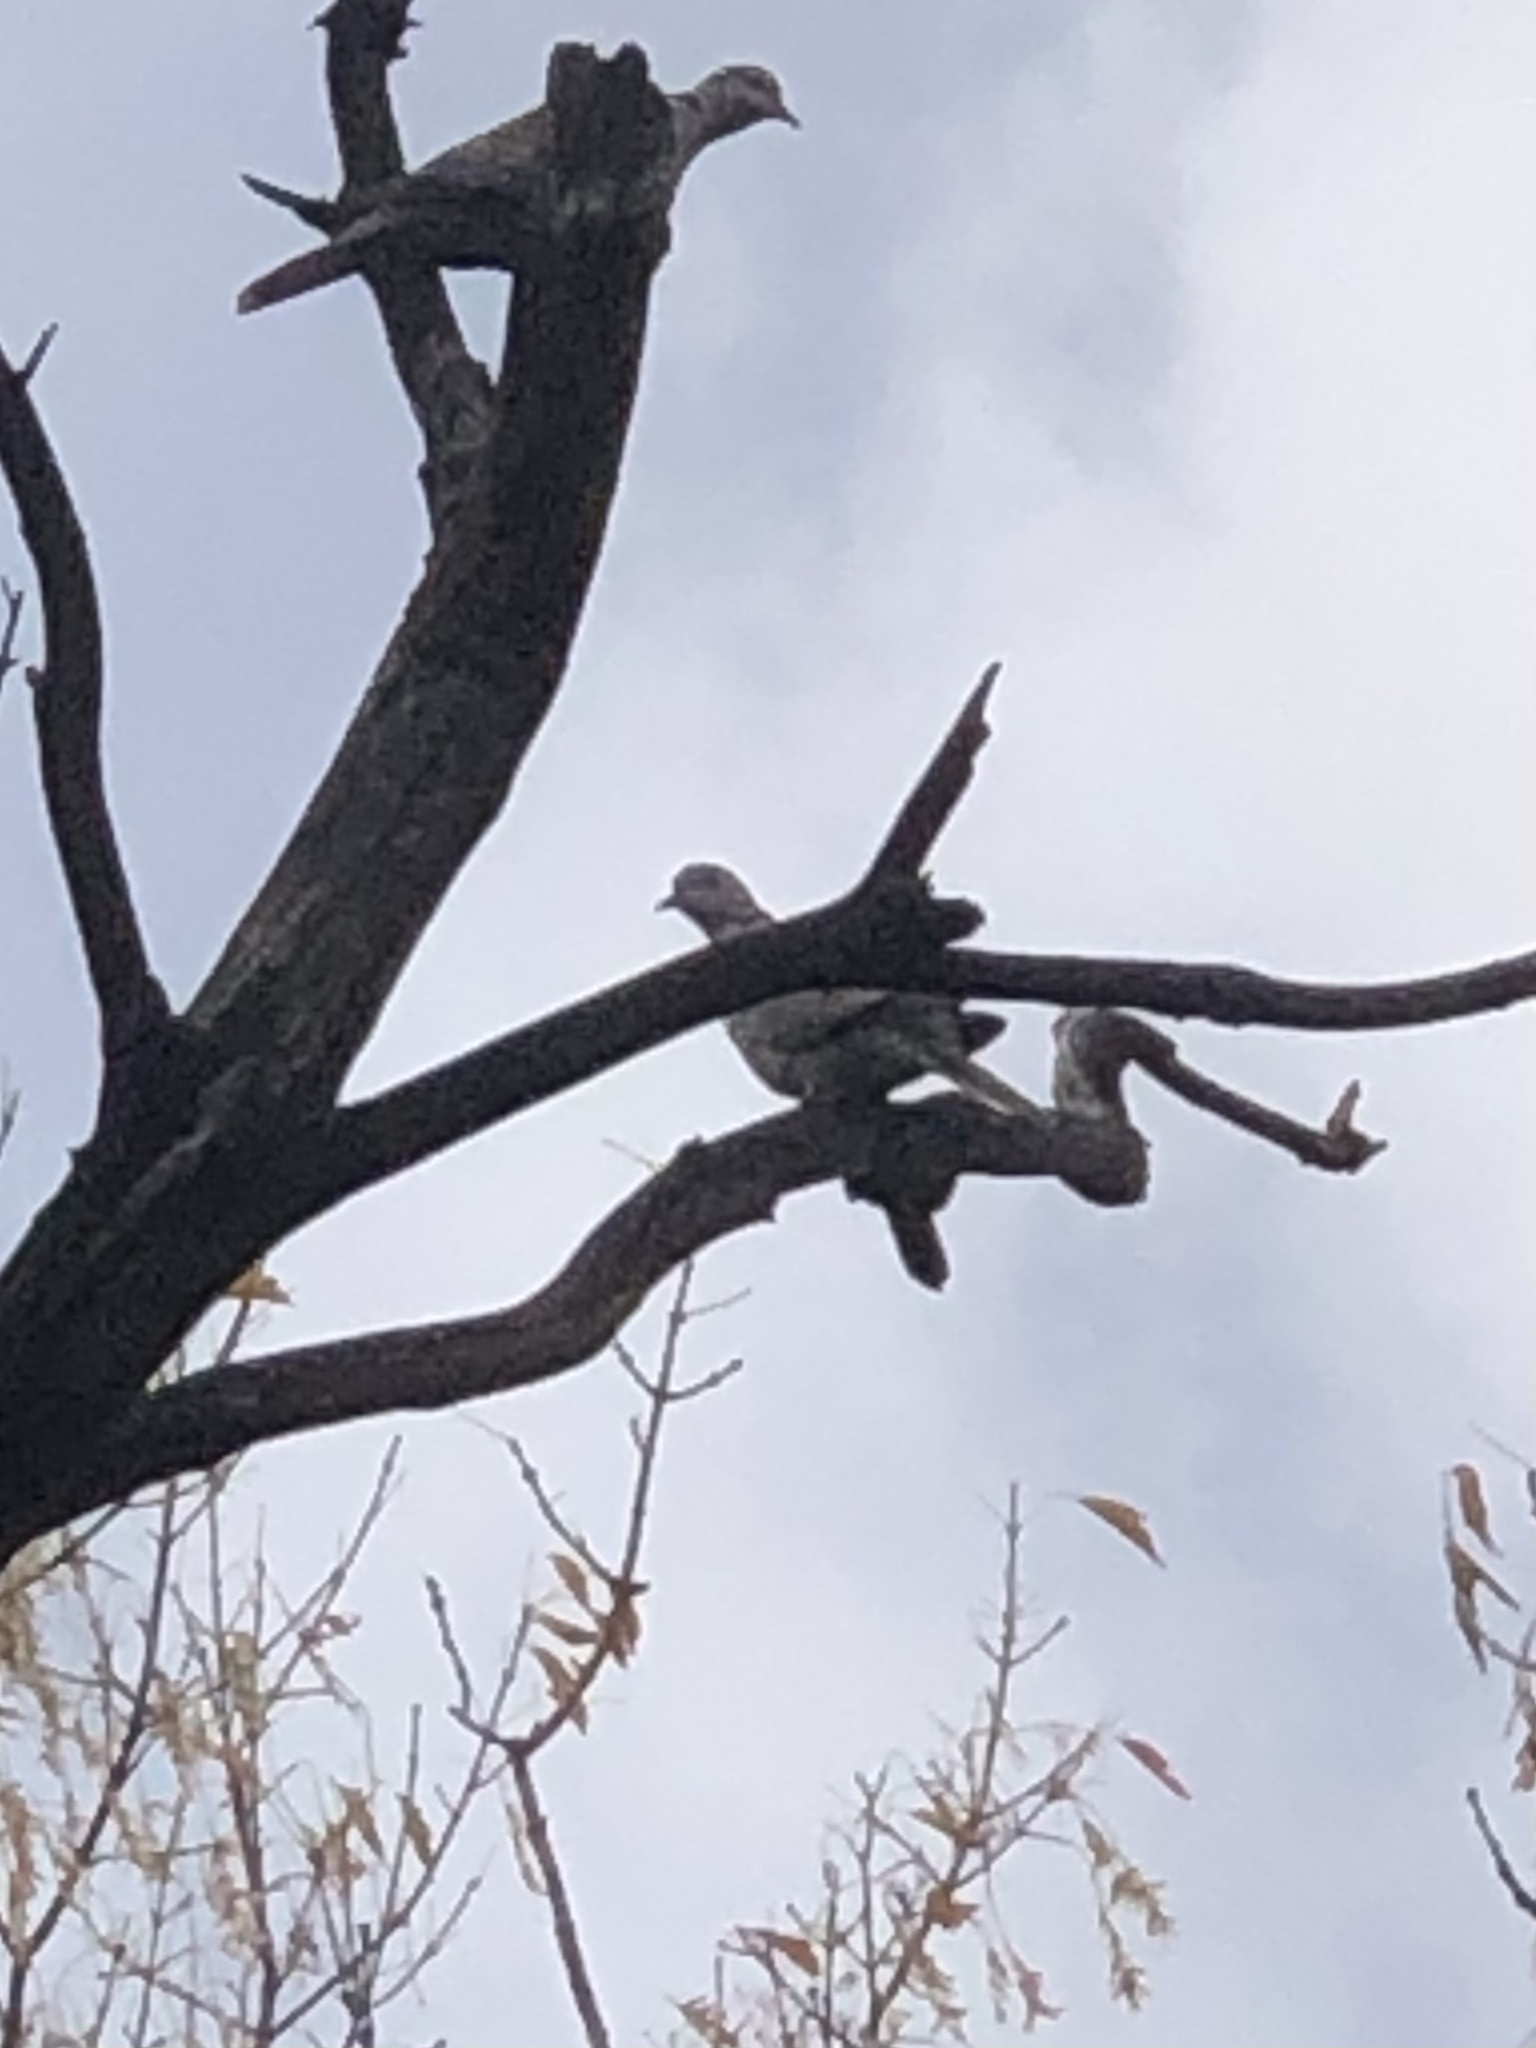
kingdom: Animalia
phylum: Chordata
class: Aves
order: Columbiformes
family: Columbidae
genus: Streptopelia
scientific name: Streptopelia decaocto
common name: Eurasian collared dove
